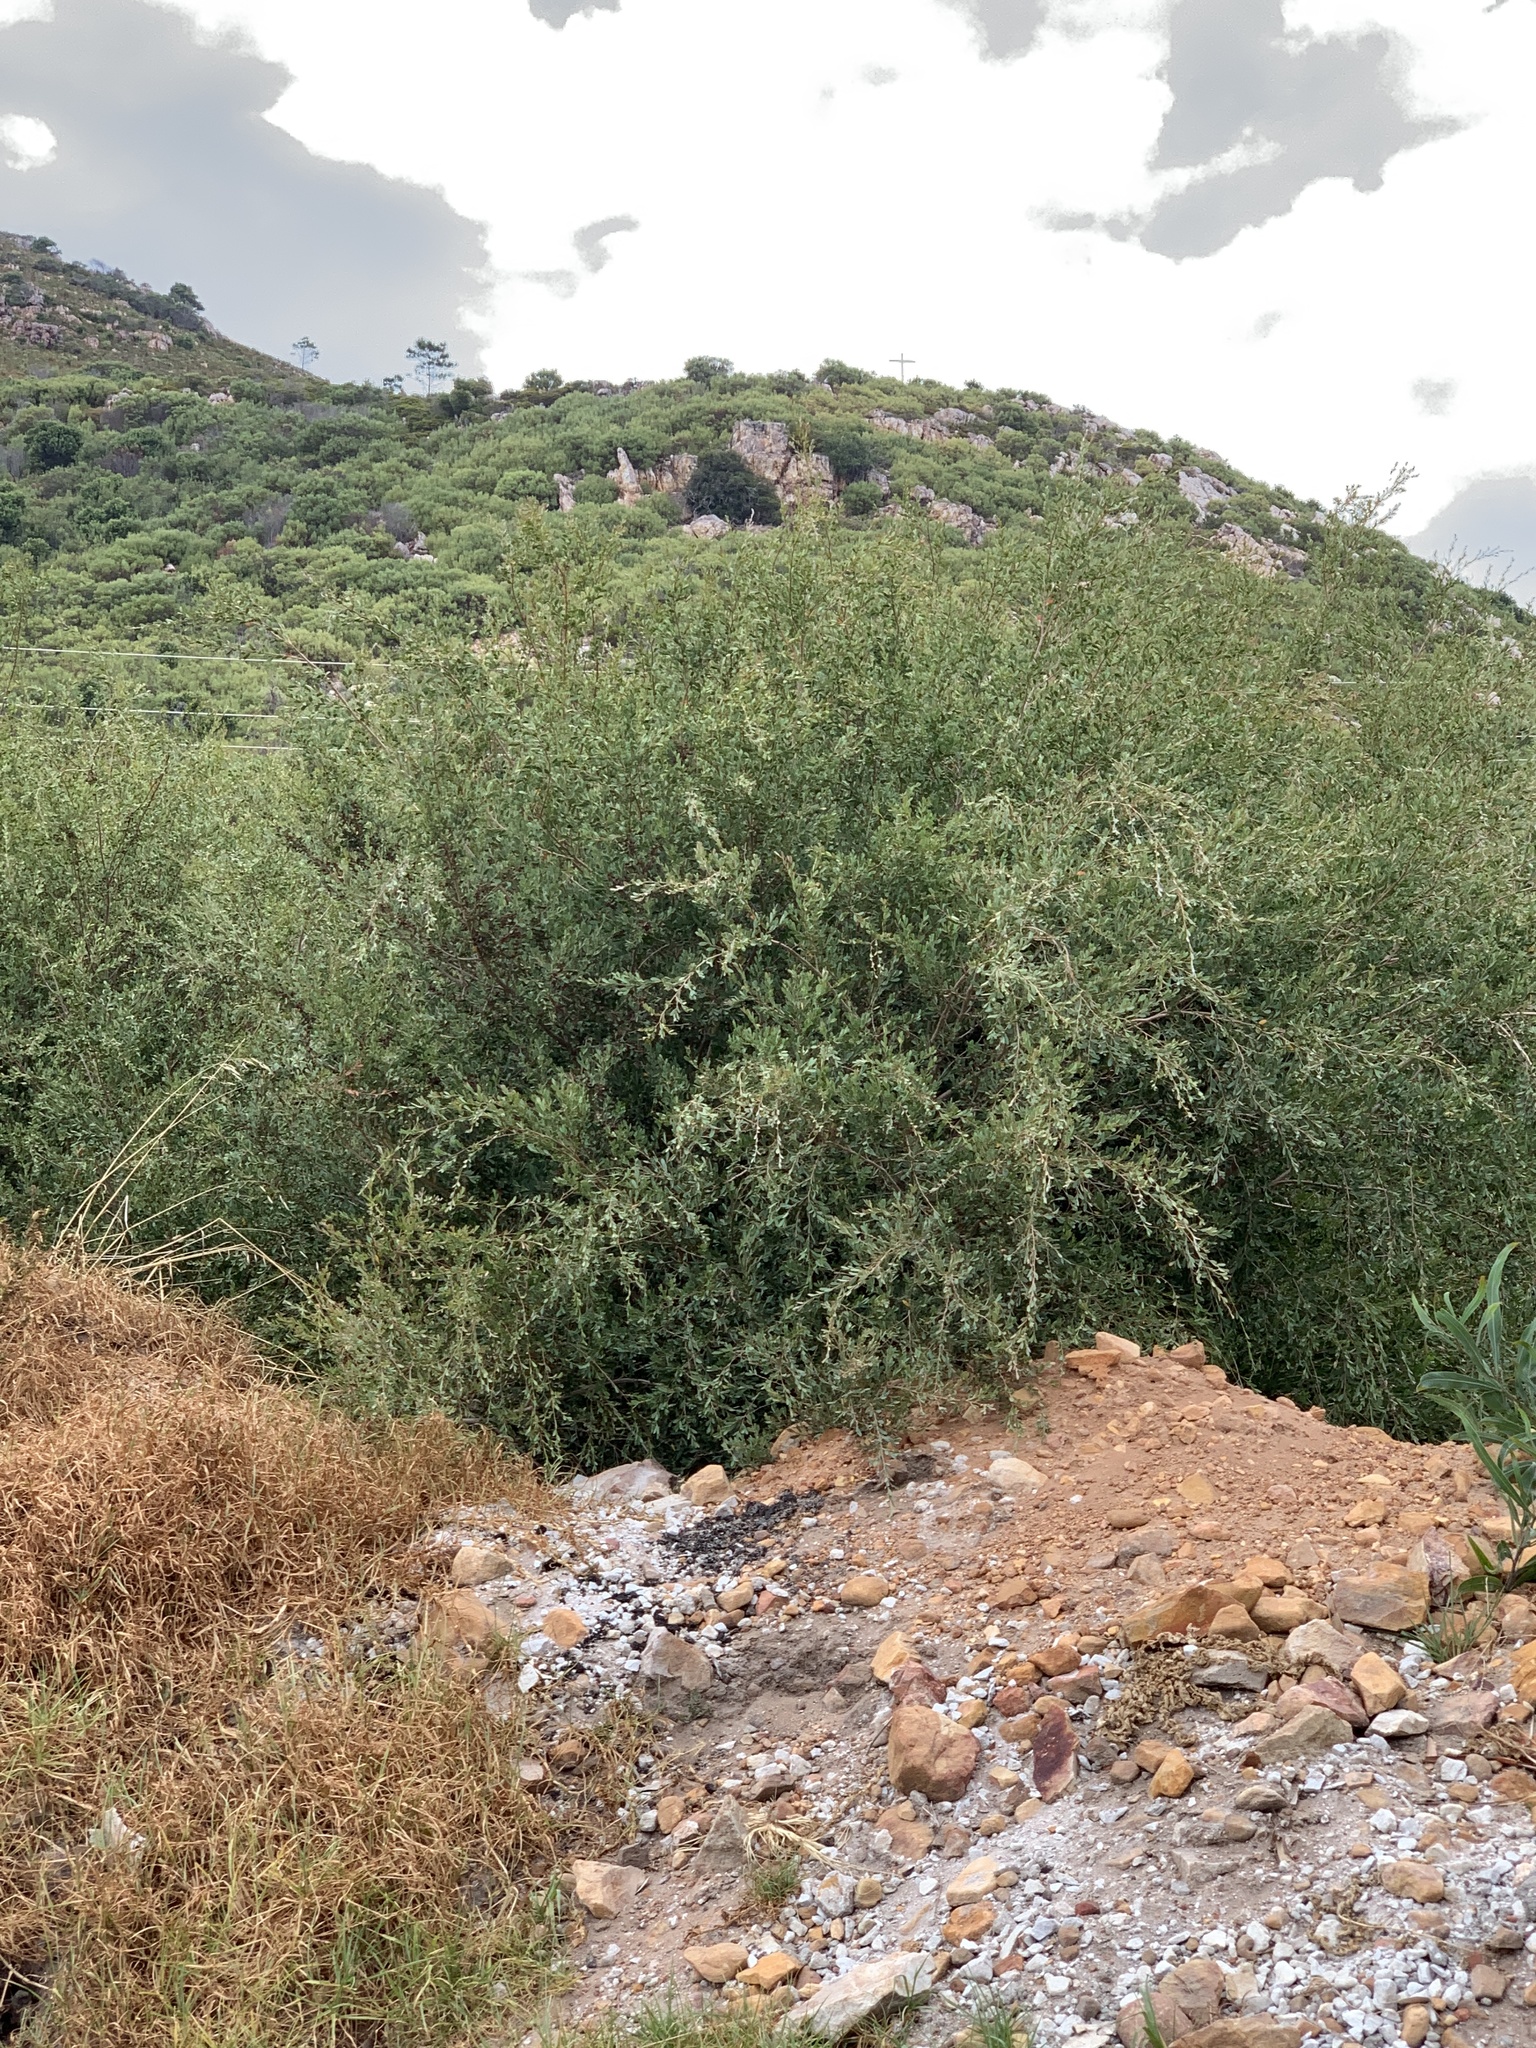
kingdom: Plantae
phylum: Tracheophyta
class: Magnoliopsida
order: Myrtales
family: Myrtaceae
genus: Leptospermum
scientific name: Leptospermum laevigatum
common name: Australian teatree
